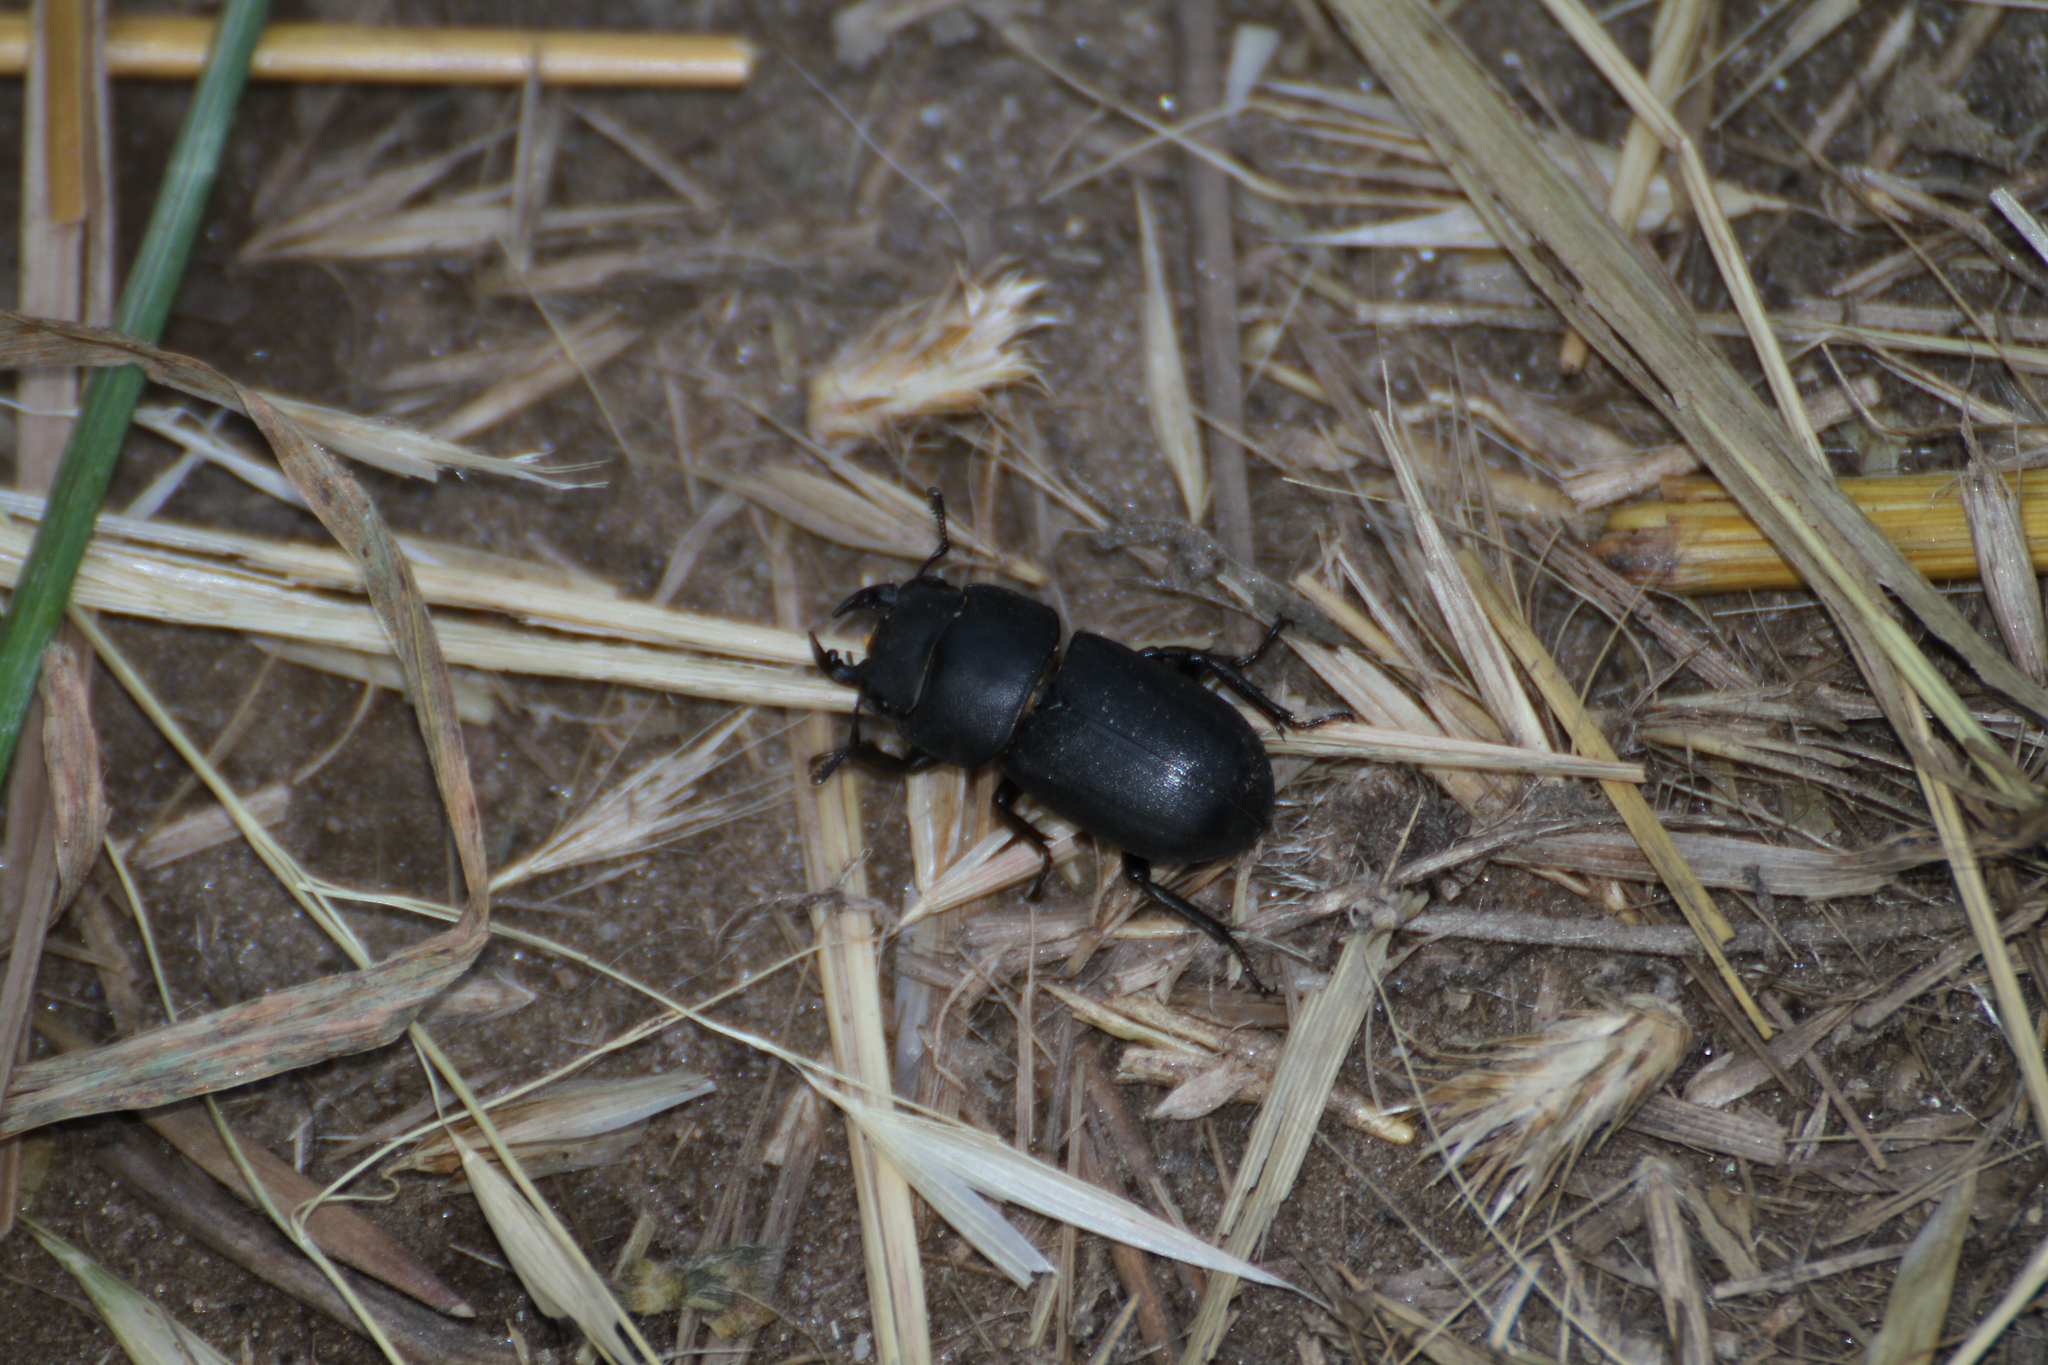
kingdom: Animalia
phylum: Arthropoda
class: Insecta
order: Coleoptera
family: Lucanidae
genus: Dorcus
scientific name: Dorcus parallelipipedus
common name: Lesser stag beetle
